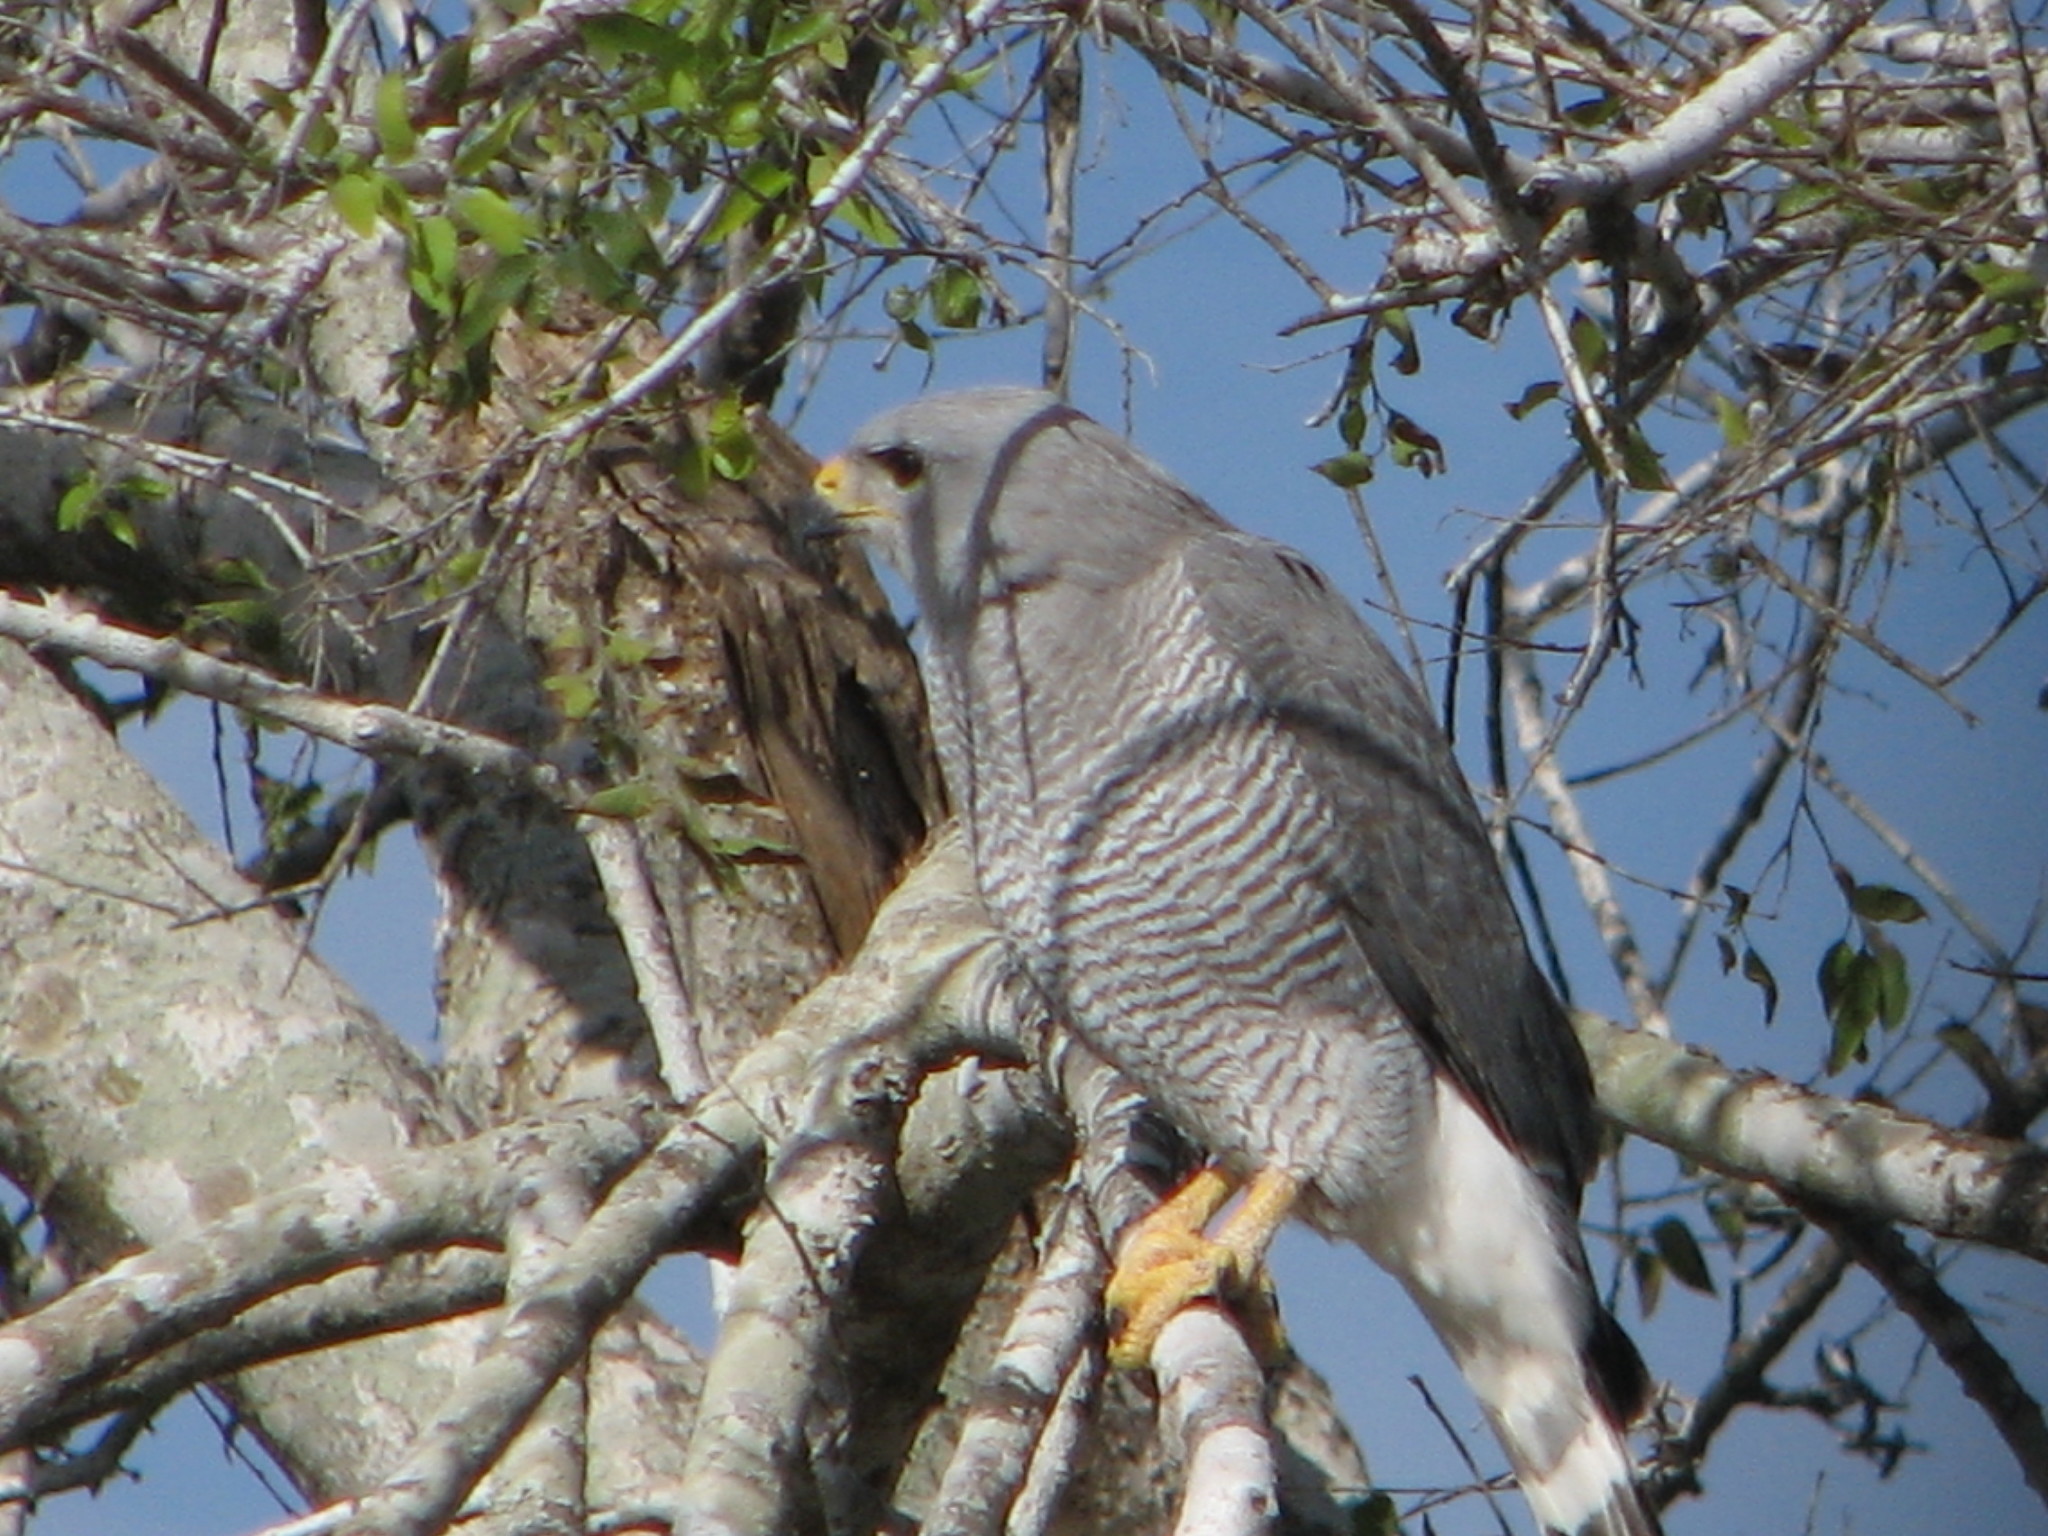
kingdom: Animalia
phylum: Chordata
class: Aves
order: Accipitriformes
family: Accipitridae
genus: Buteo
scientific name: Buteo nitidus
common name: Grey-lined hawk
